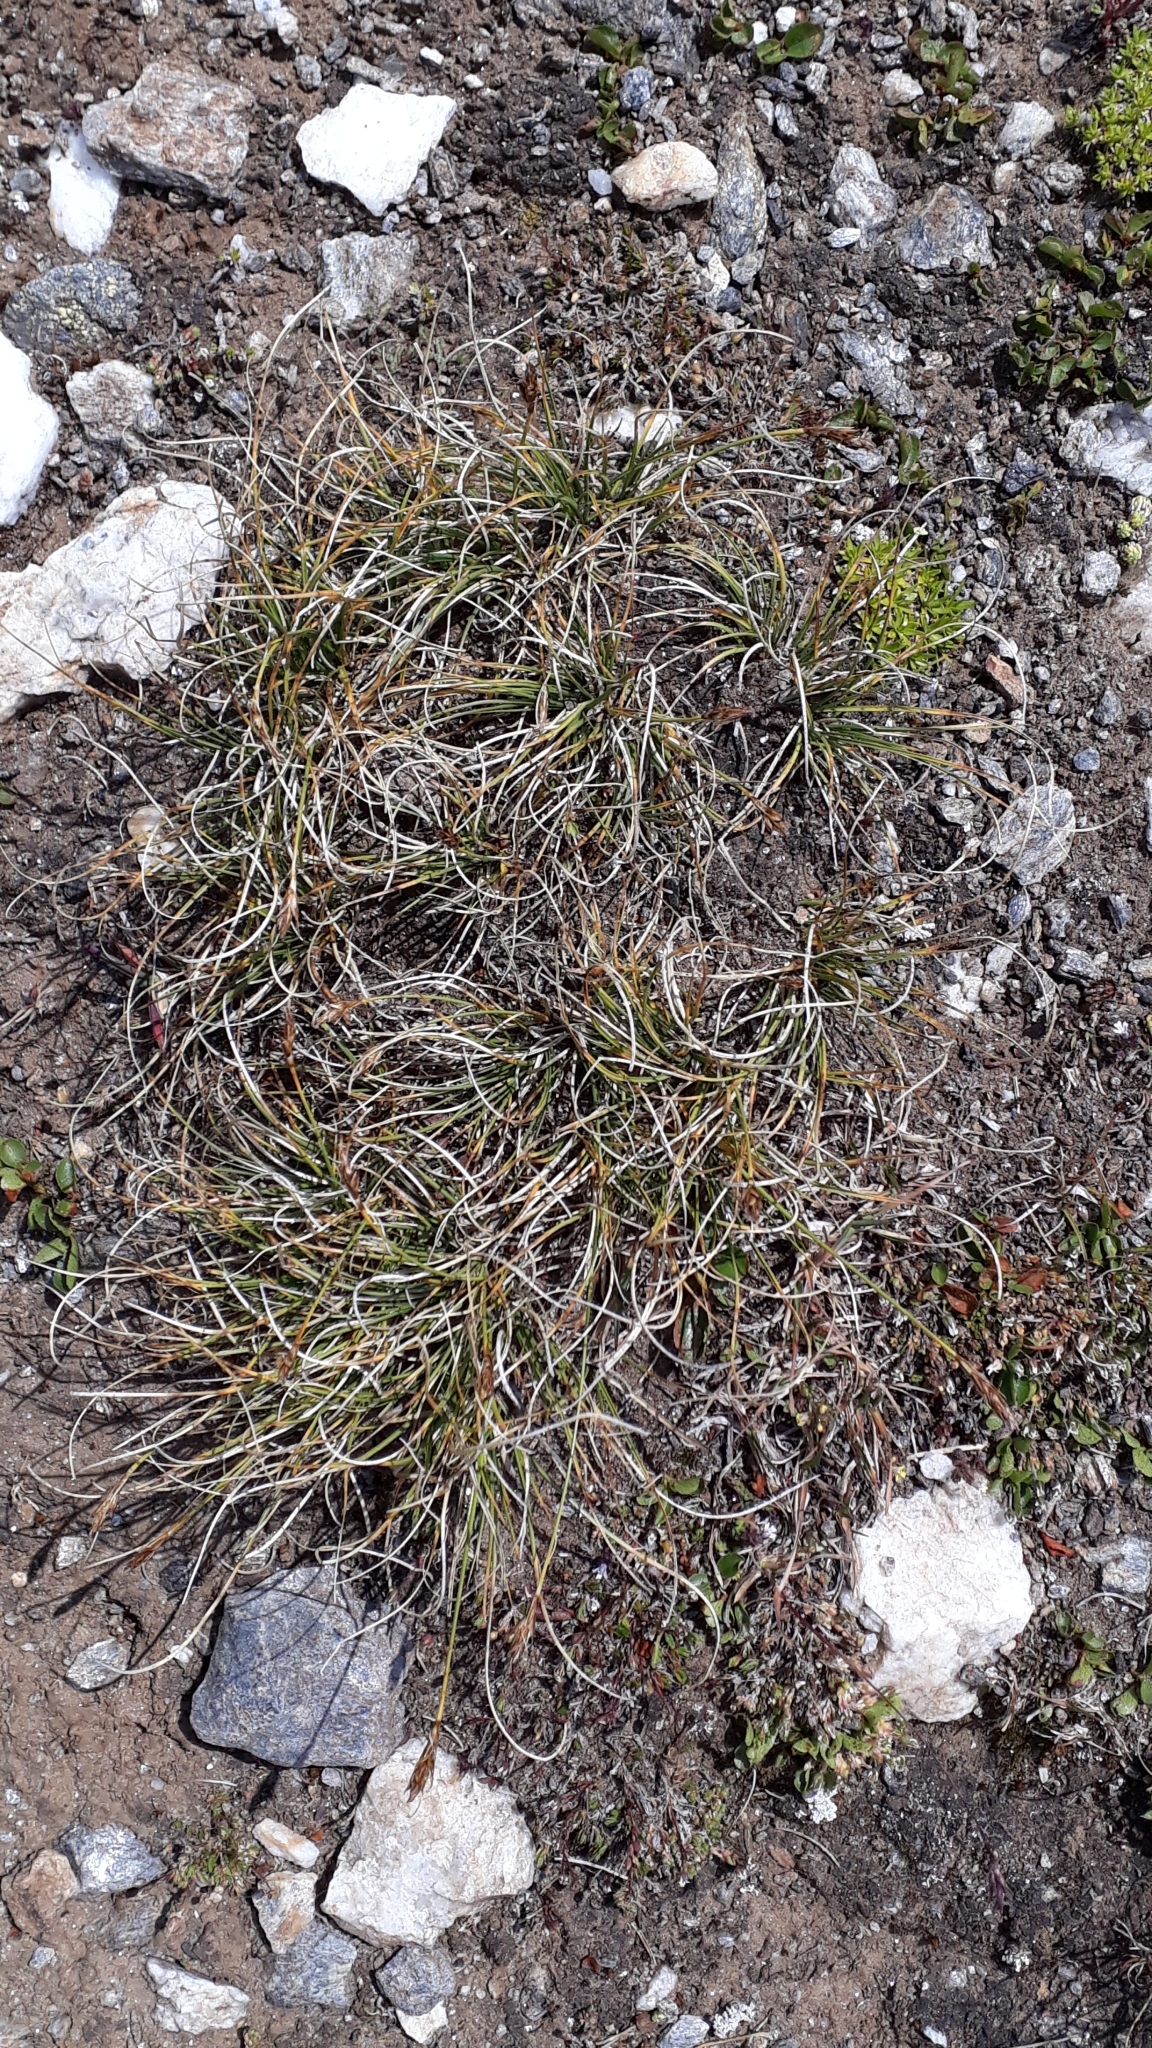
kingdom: Plantae
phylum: Tracheophyta
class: Liliopsida
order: Poales
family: Cyperaceae
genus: Carex
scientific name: Carex curvula
